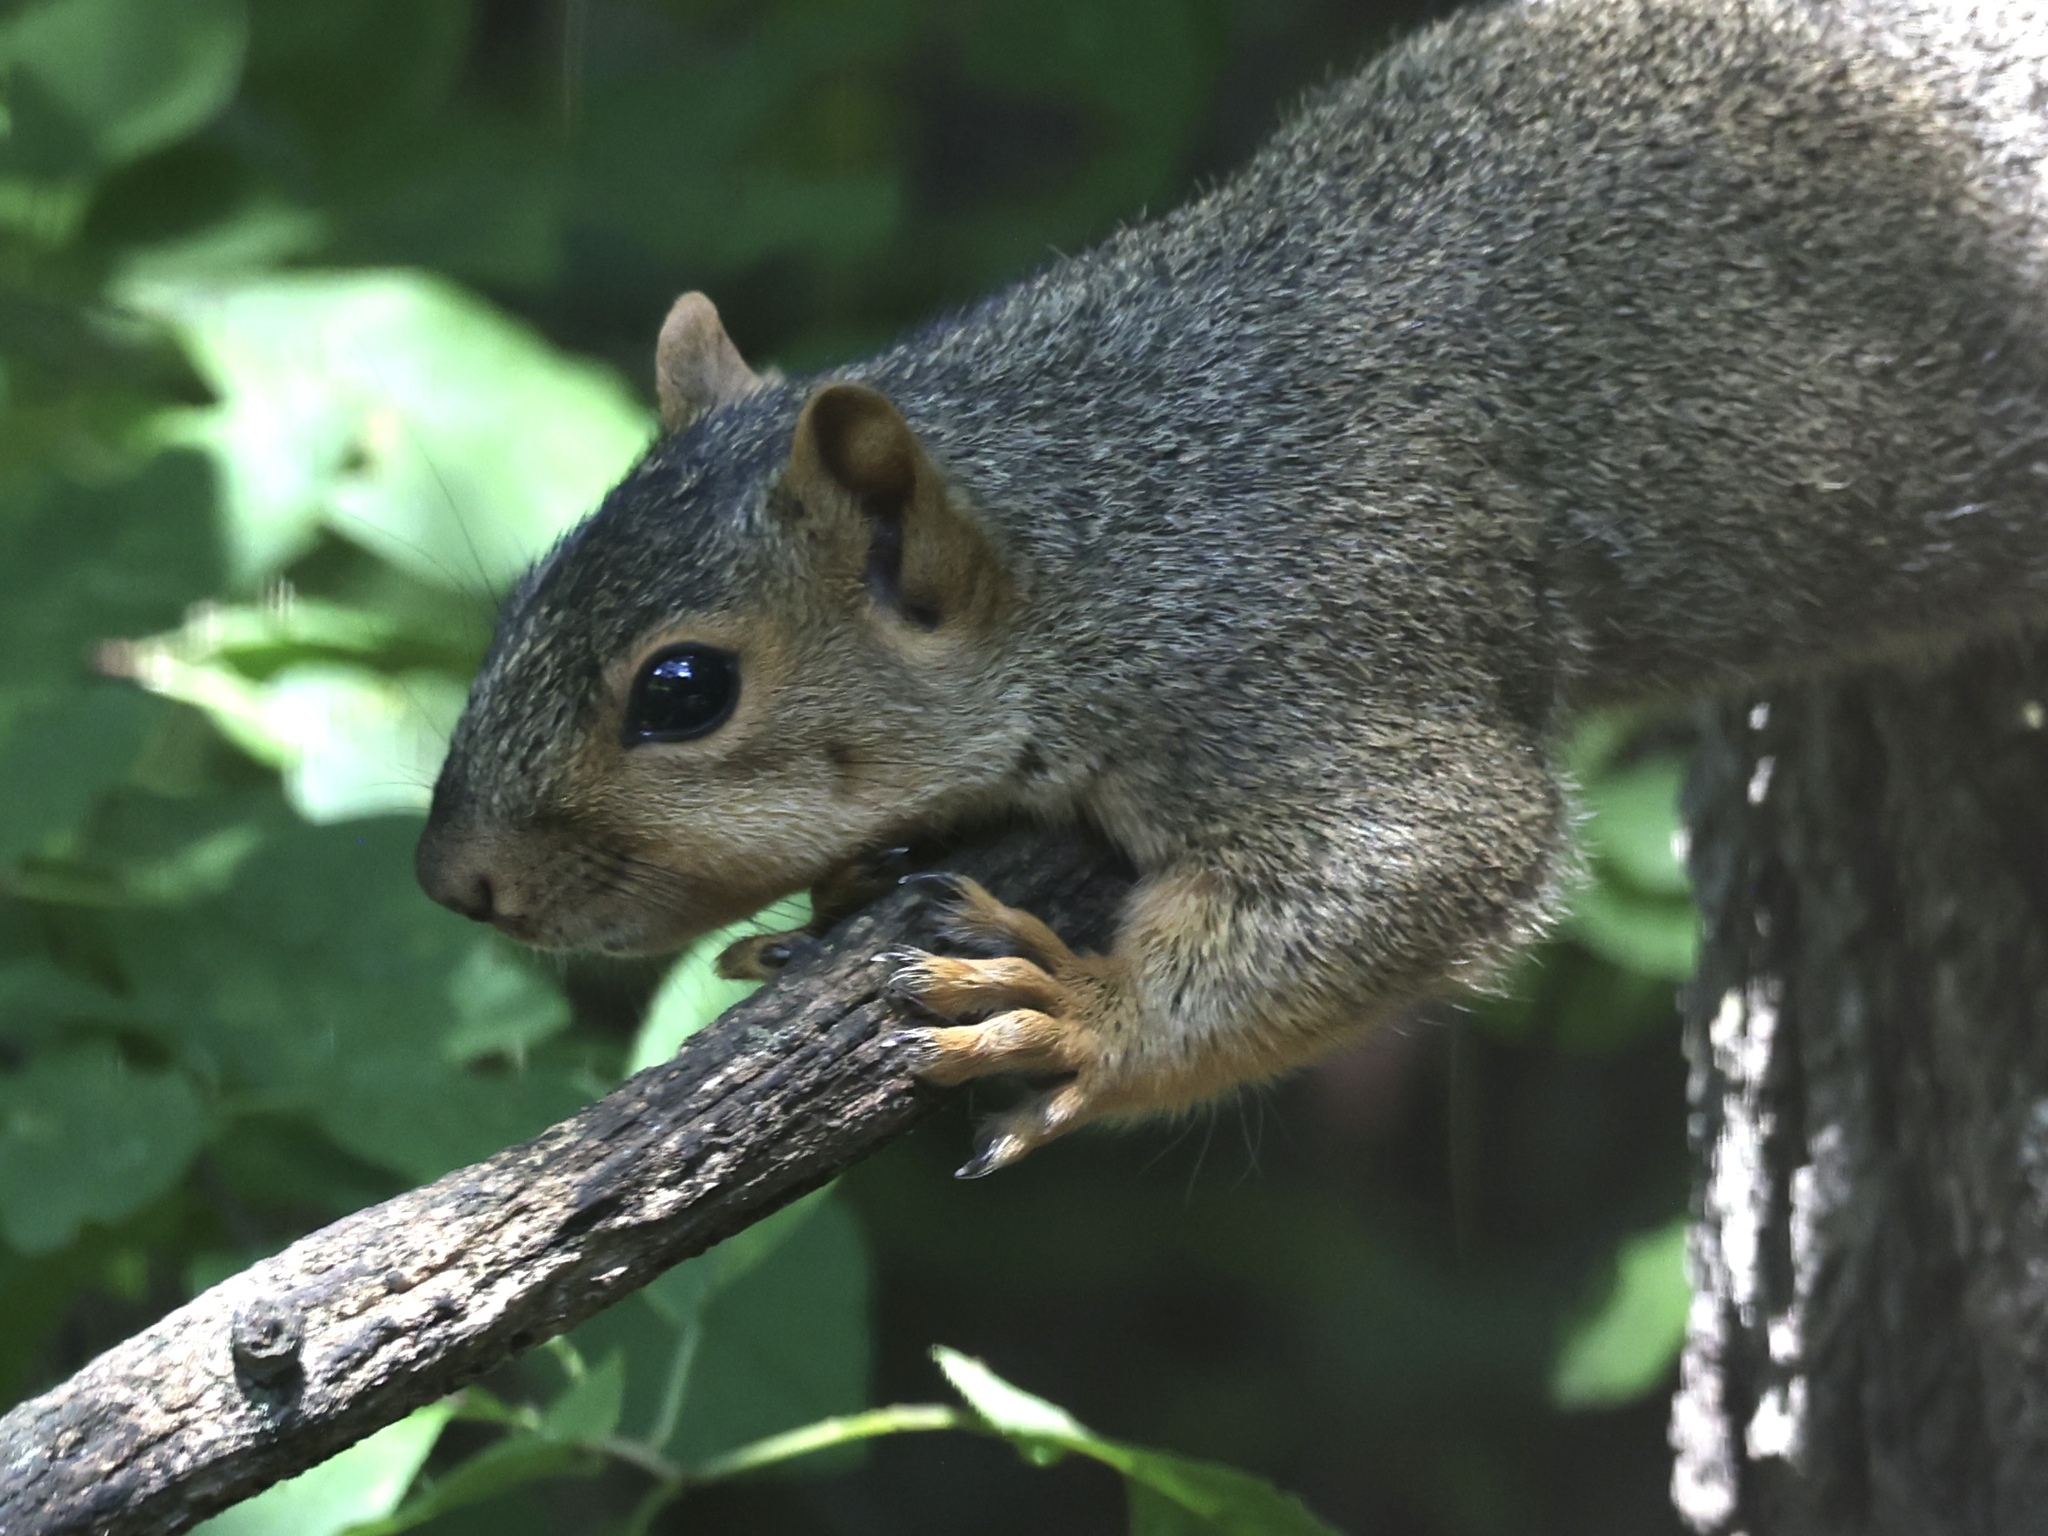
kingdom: Animalia
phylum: Chordata
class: Mammalia
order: Rodentia
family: Sciuridae
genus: Sciurus
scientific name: Sciurus niger
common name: Fox squirrel
